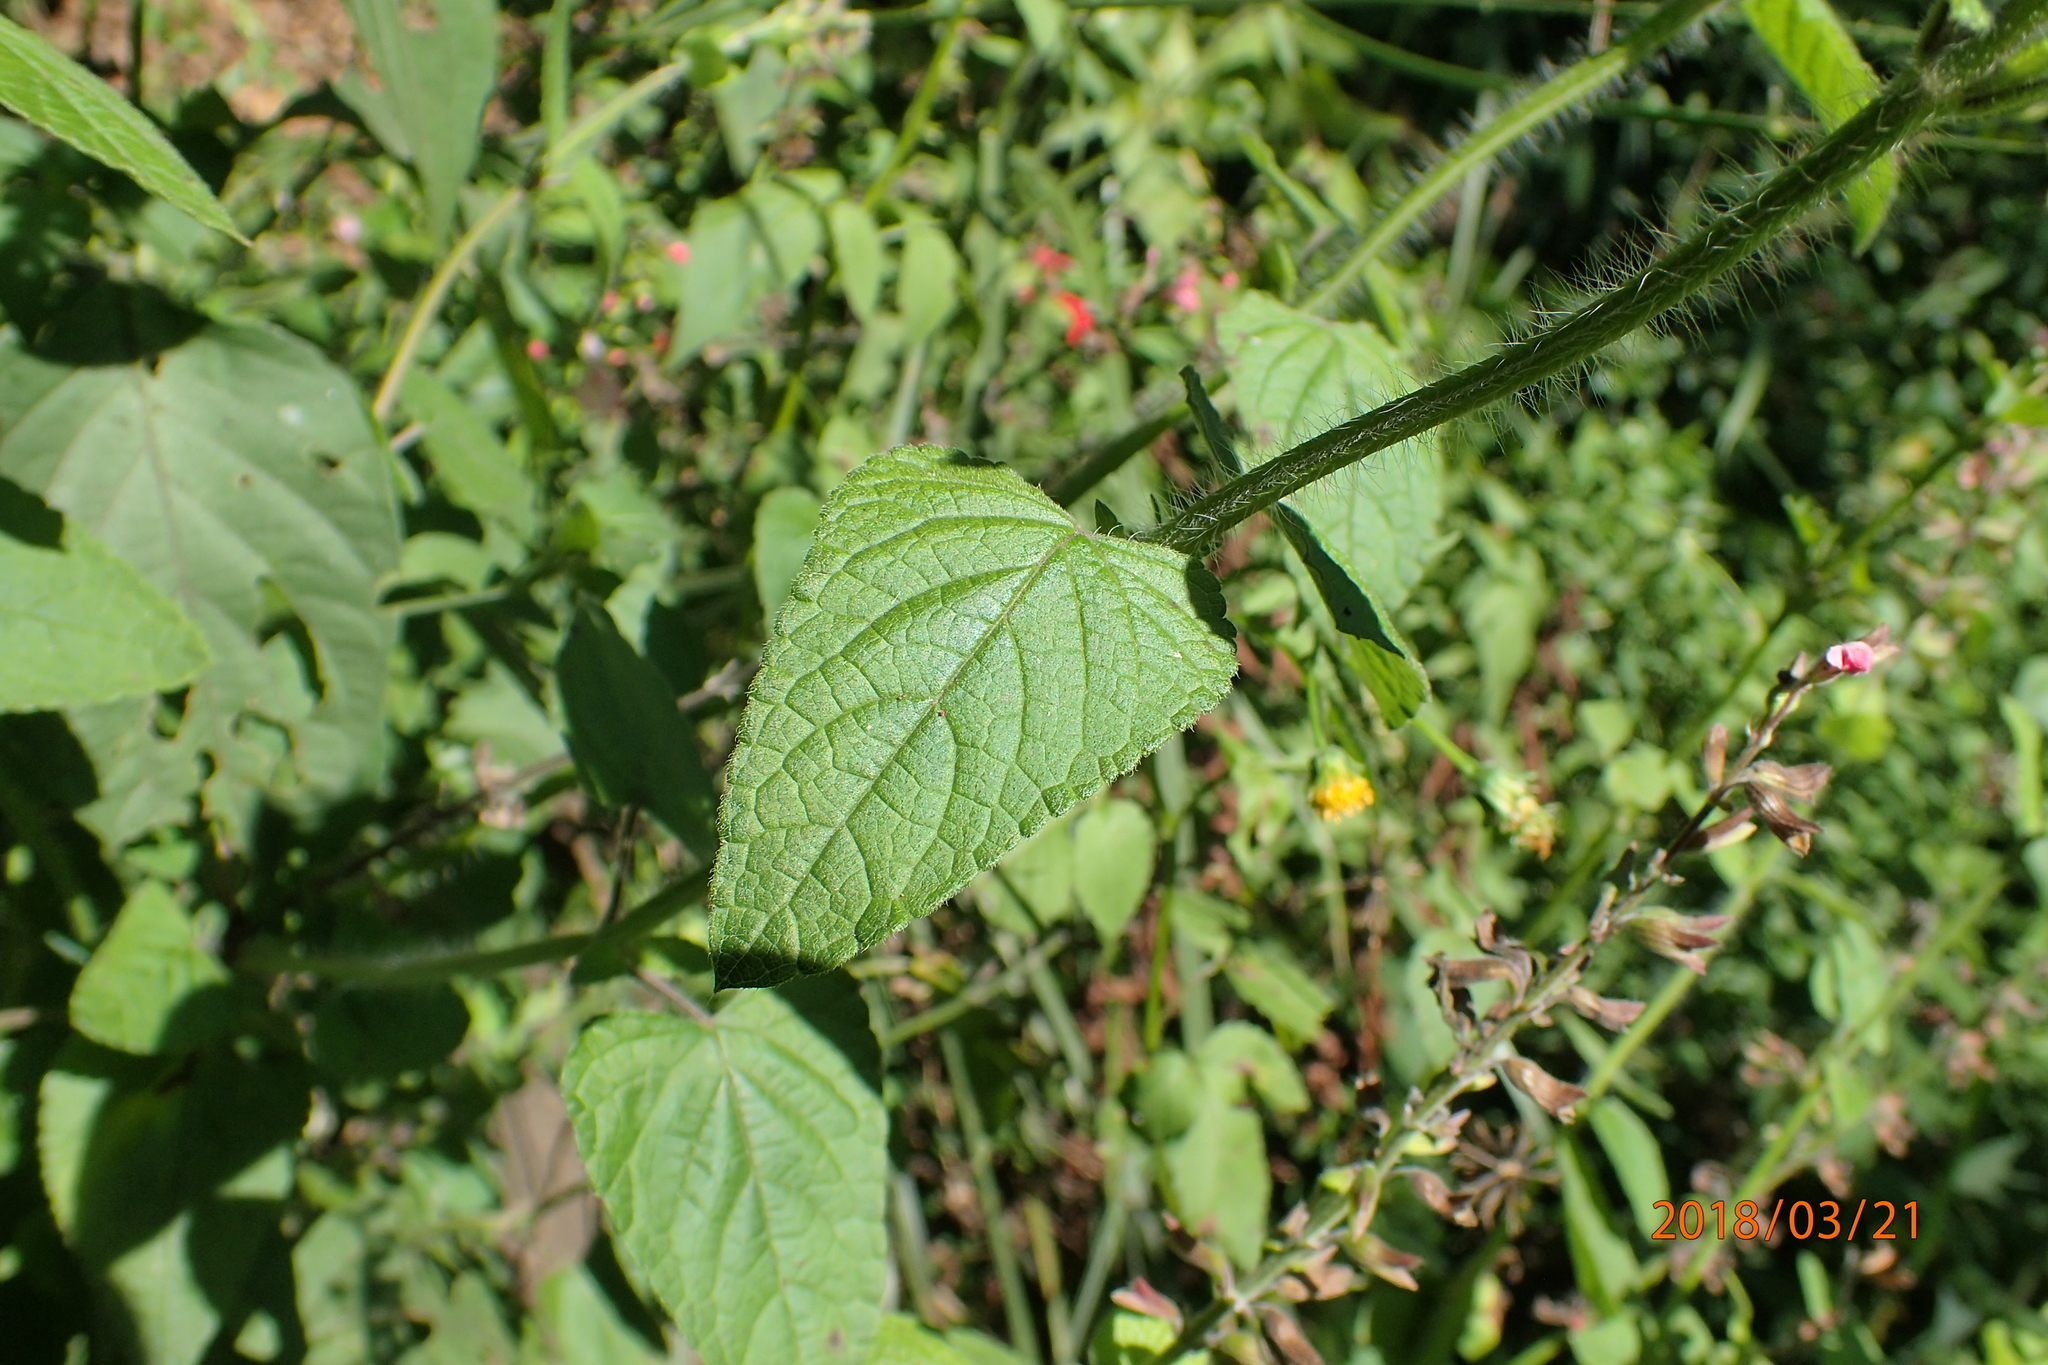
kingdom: Plantae
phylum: Tracheophyta
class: Magnoliopsida
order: Lamiales
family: Lamiaceae
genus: Salvia
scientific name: Salvia coccinea
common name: Blood sage
